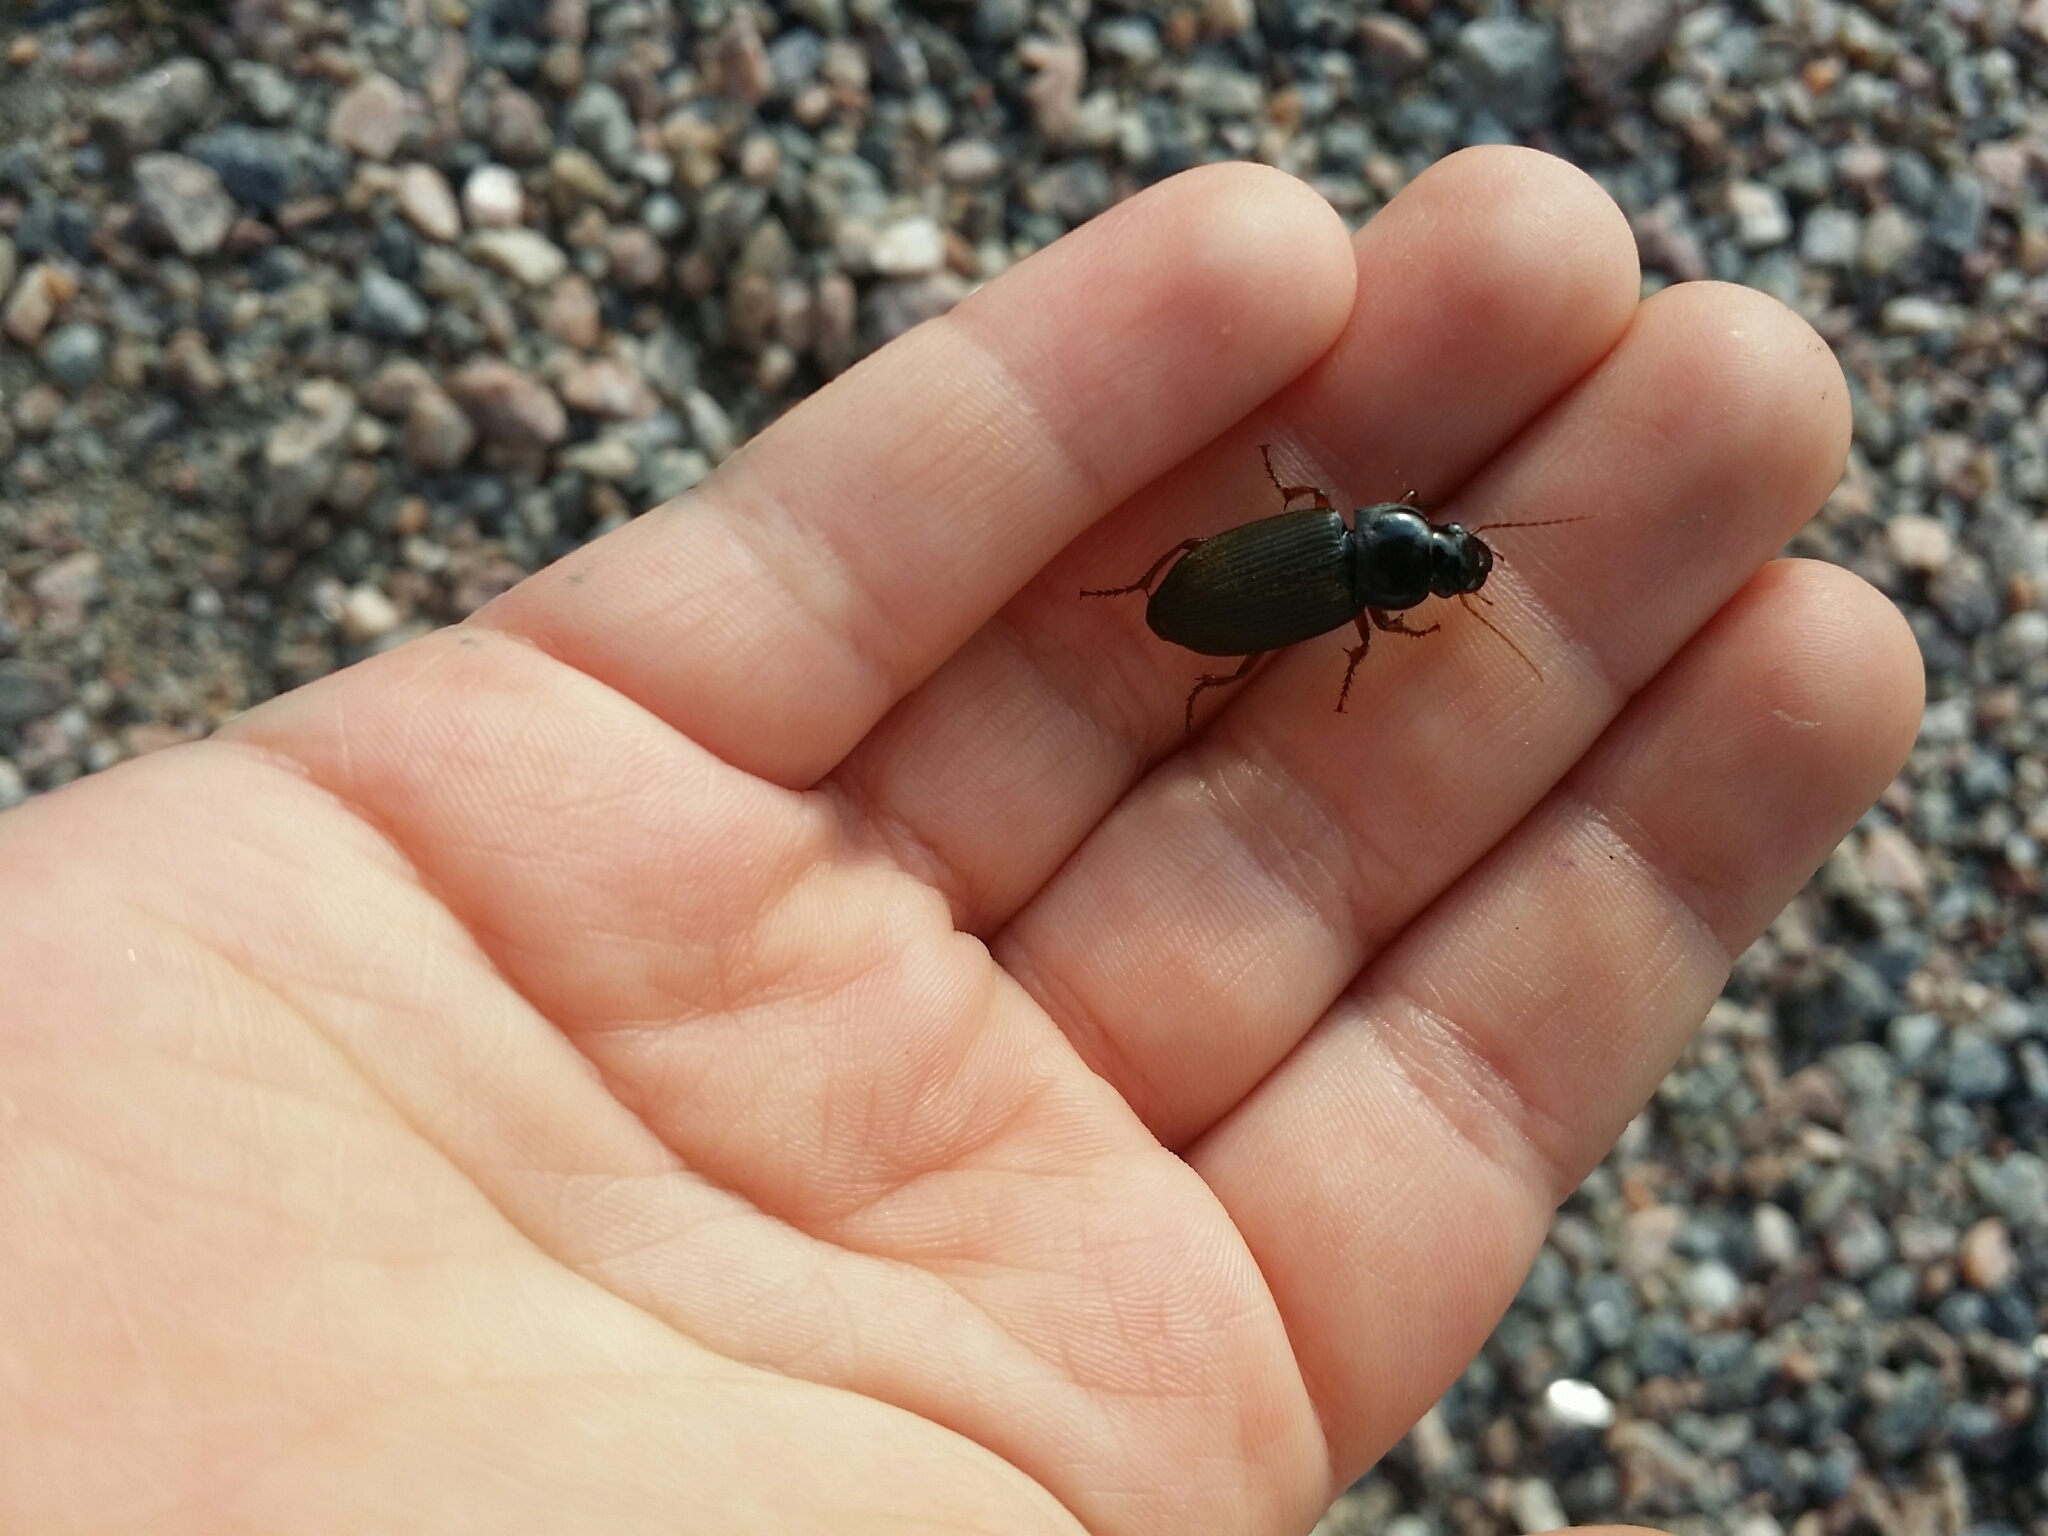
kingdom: Animalia
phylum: Arthropoda
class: Insecta
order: Coleoptera
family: Carabidae
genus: Harpalus
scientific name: Harpalus rufipes
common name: Strawberry harp ground beetle
